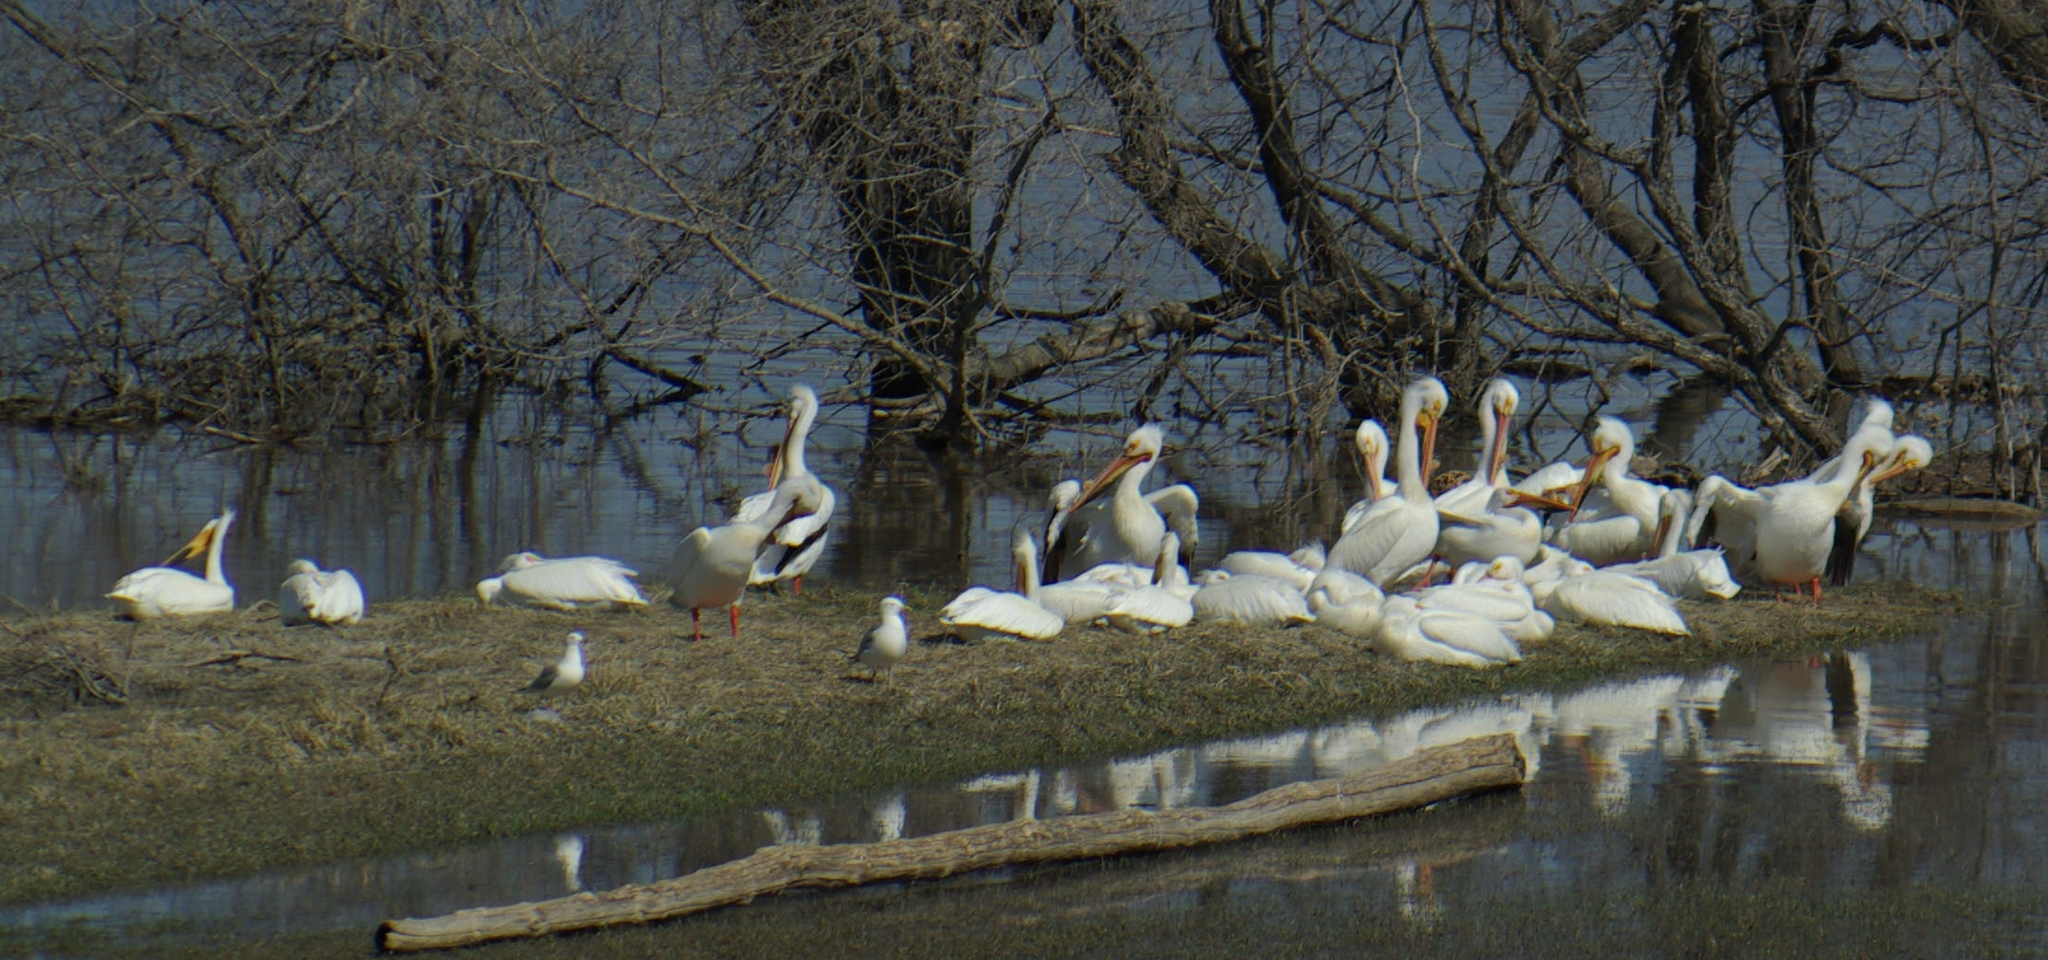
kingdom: Animalia
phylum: Chordata
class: Aves
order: Pelecaniformes
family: Pelecanidae
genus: Pelecanus
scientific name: Pelecanus erythrorhynchos
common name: American white pelican
